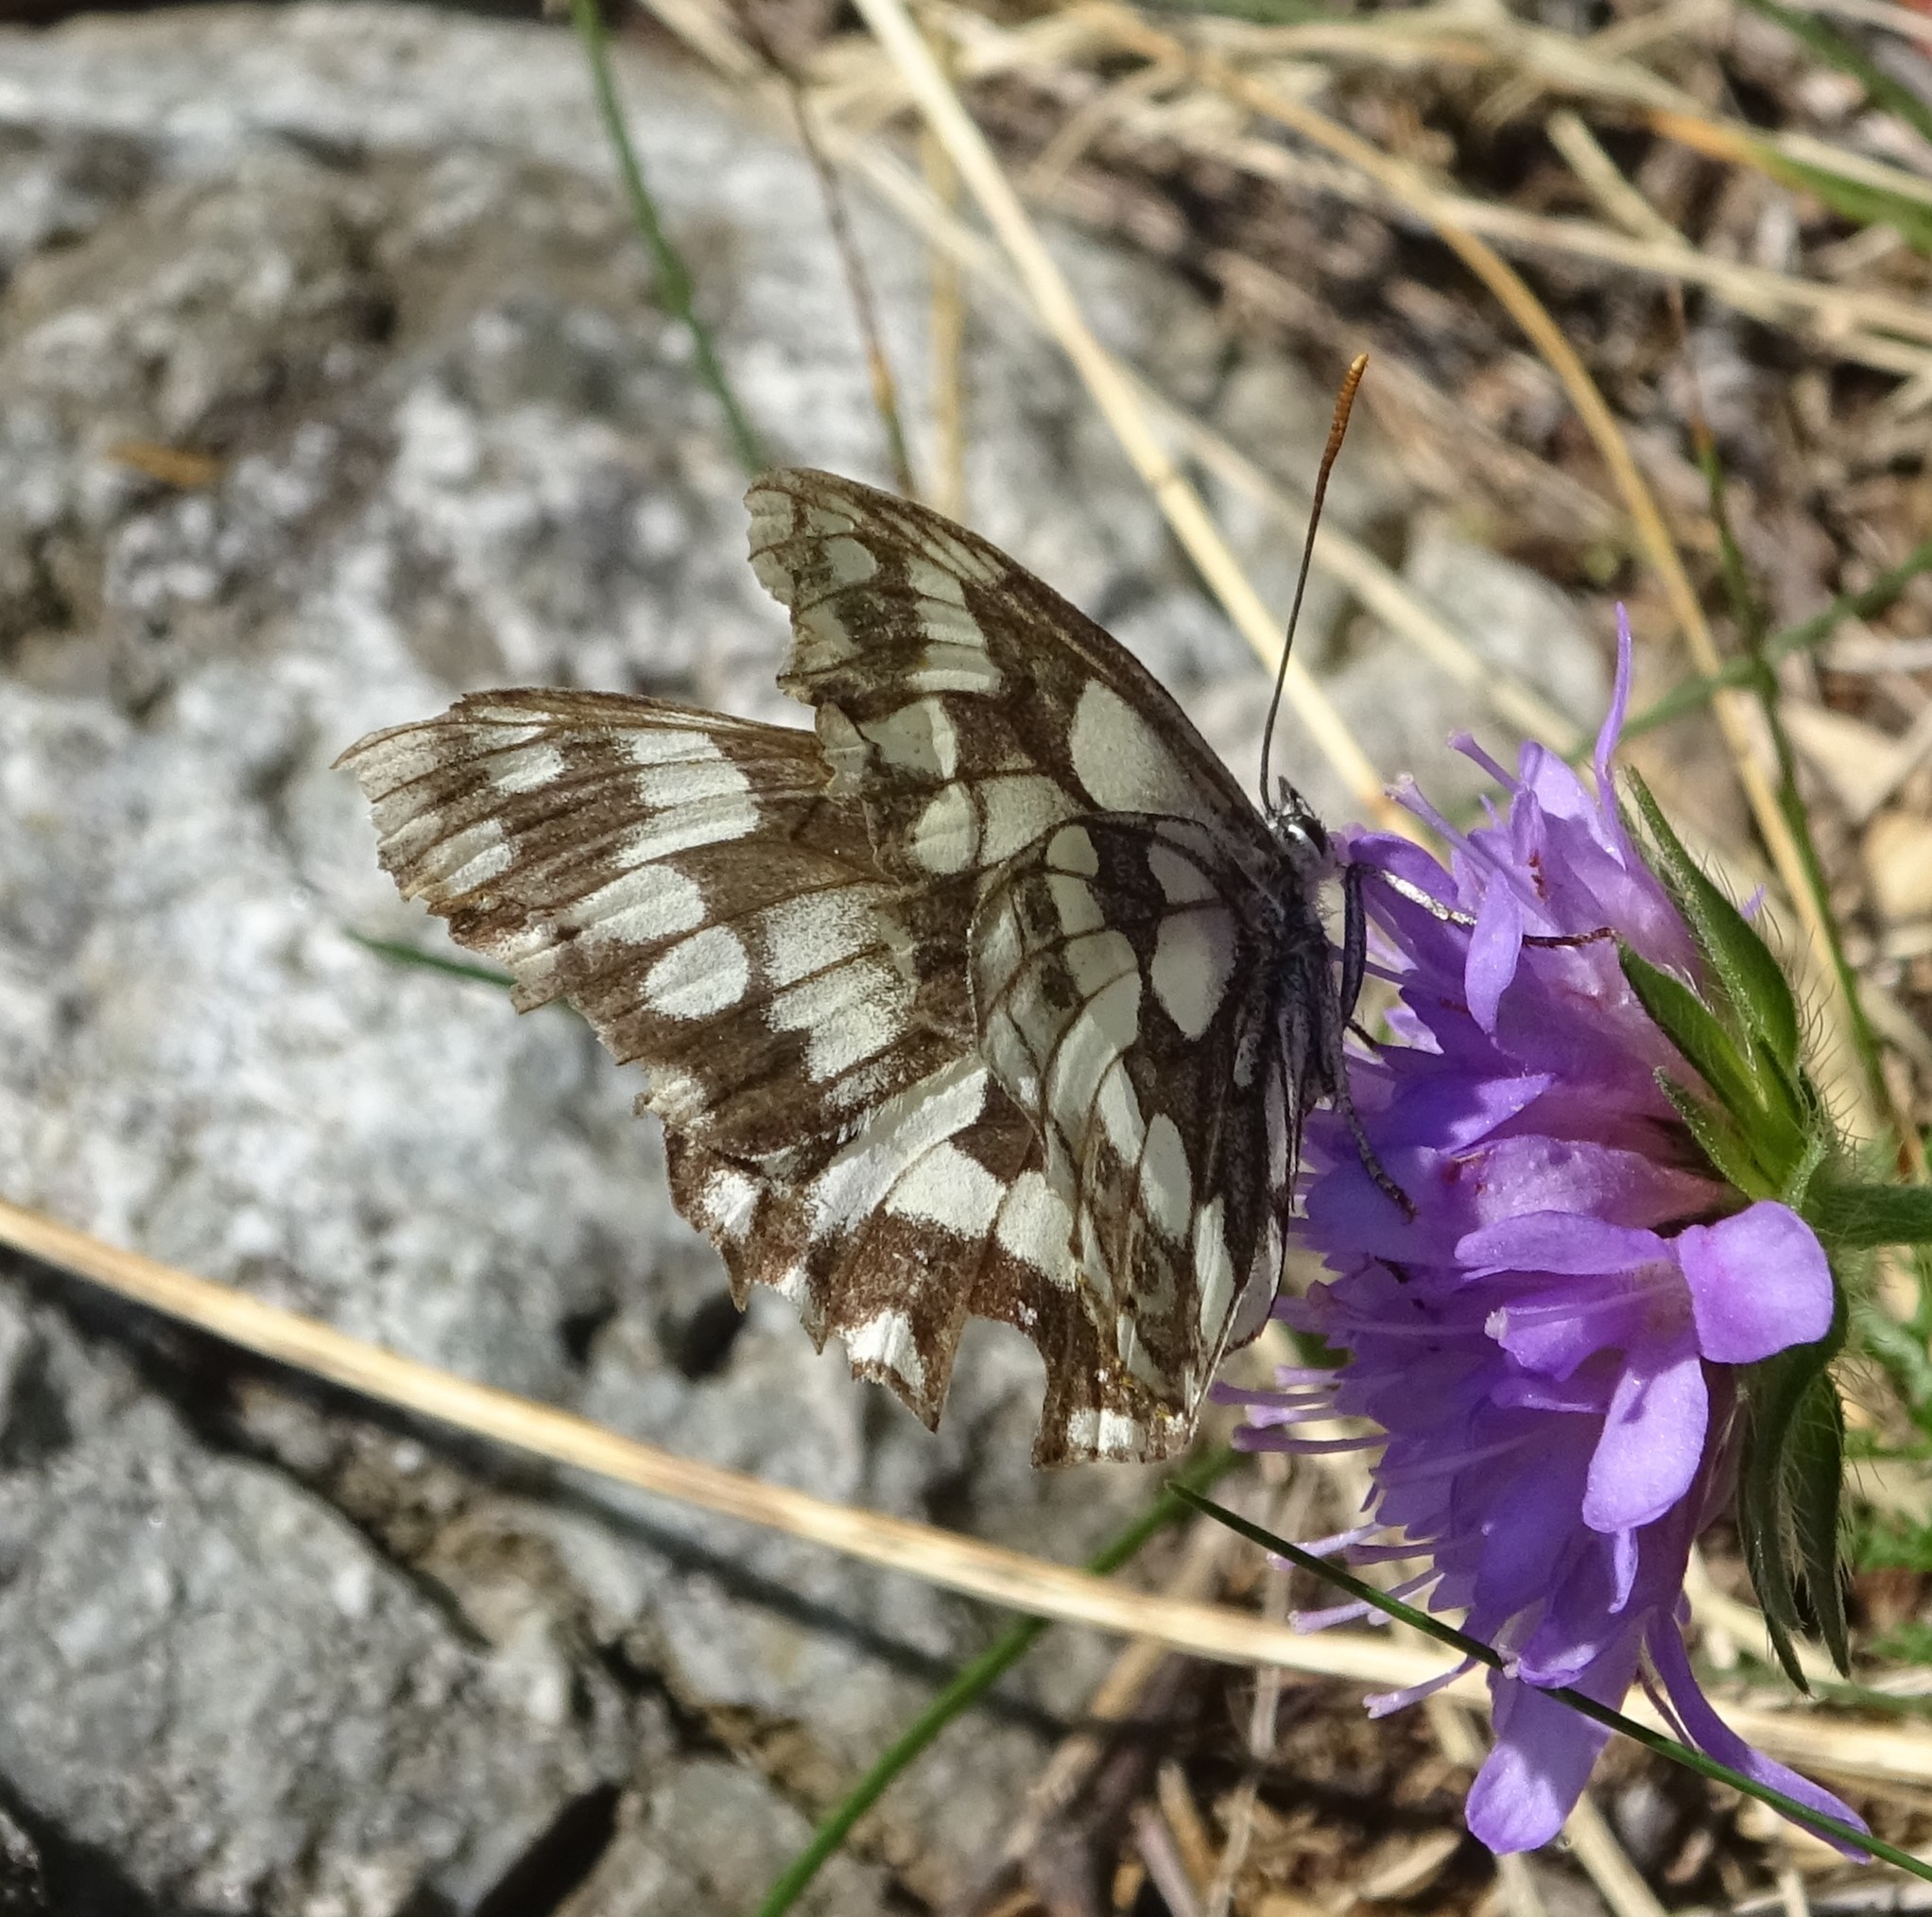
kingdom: Animalia
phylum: Arthropoda
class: Insecta
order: Lepidoptera
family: Nymphalidae
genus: Melanargia
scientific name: Melanargia galathea
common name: Marbled white
